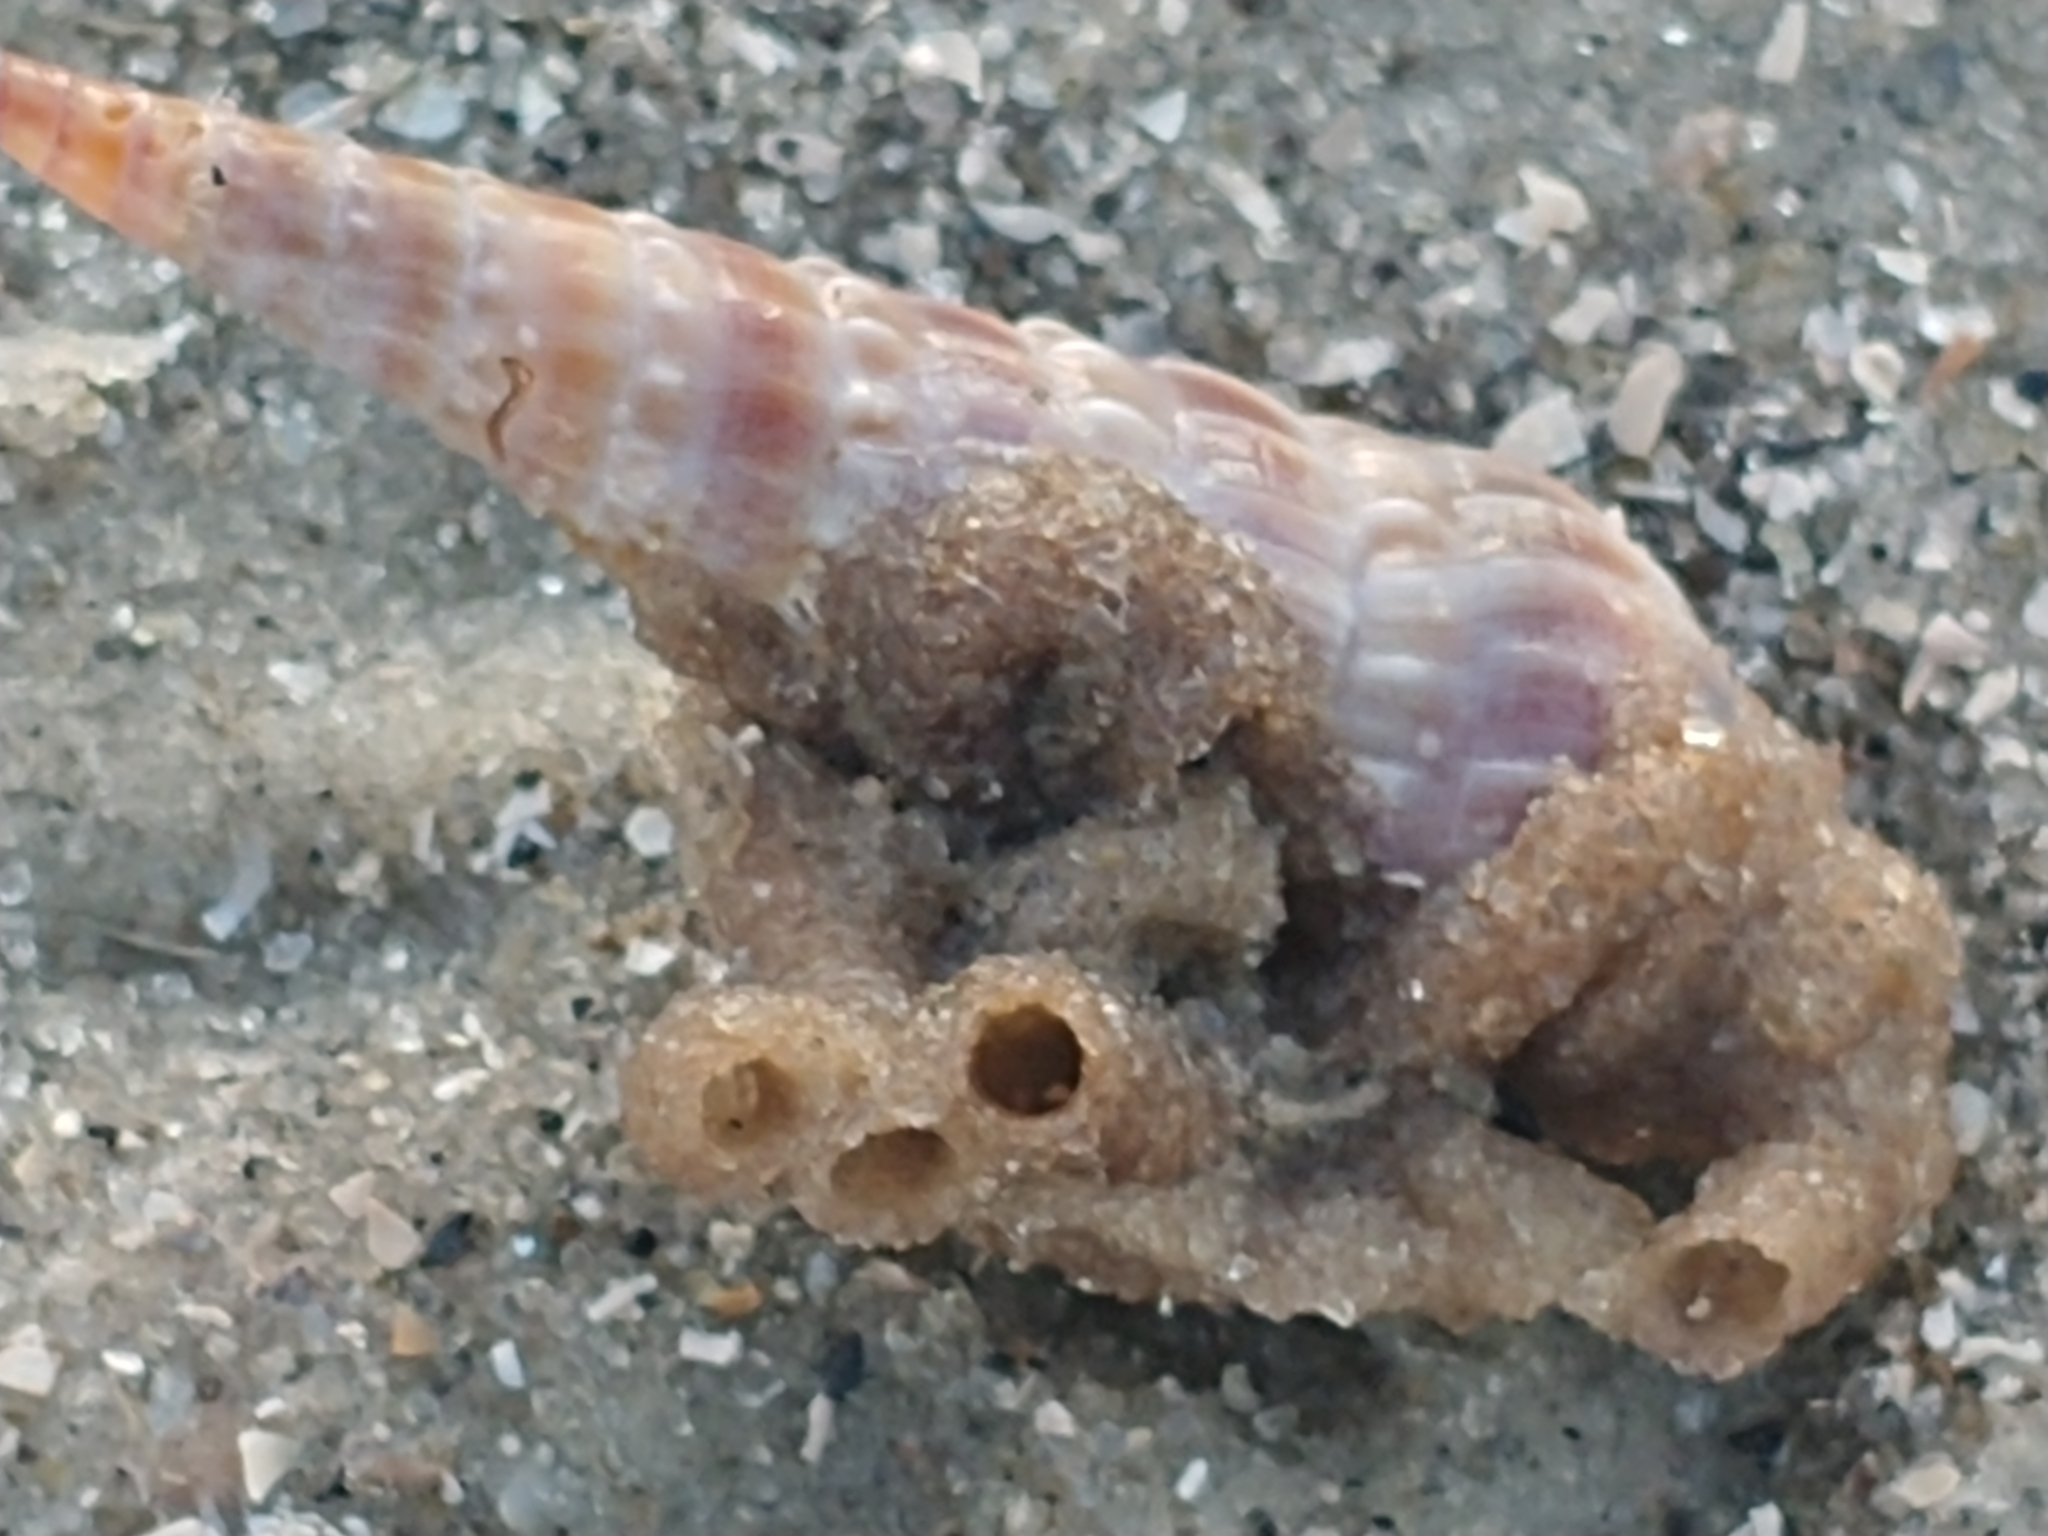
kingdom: Animalia
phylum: Mollusca
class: Gastropoda
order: Neogastropoda
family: Terebridae
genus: Neoterebra
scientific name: Neoterebra dislocata
